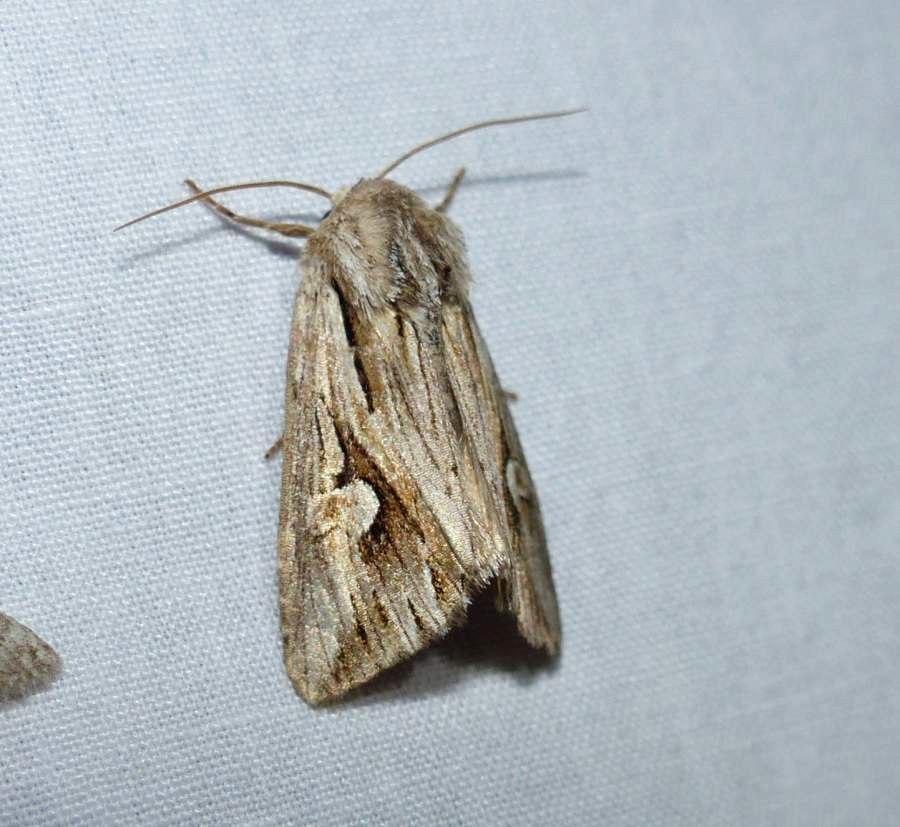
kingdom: Animalia
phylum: Arthropoda
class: Insecta
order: Lepidoptera
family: Noctuidae
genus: Nedra
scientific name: Nedra ramosula
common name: Gray half-spot
